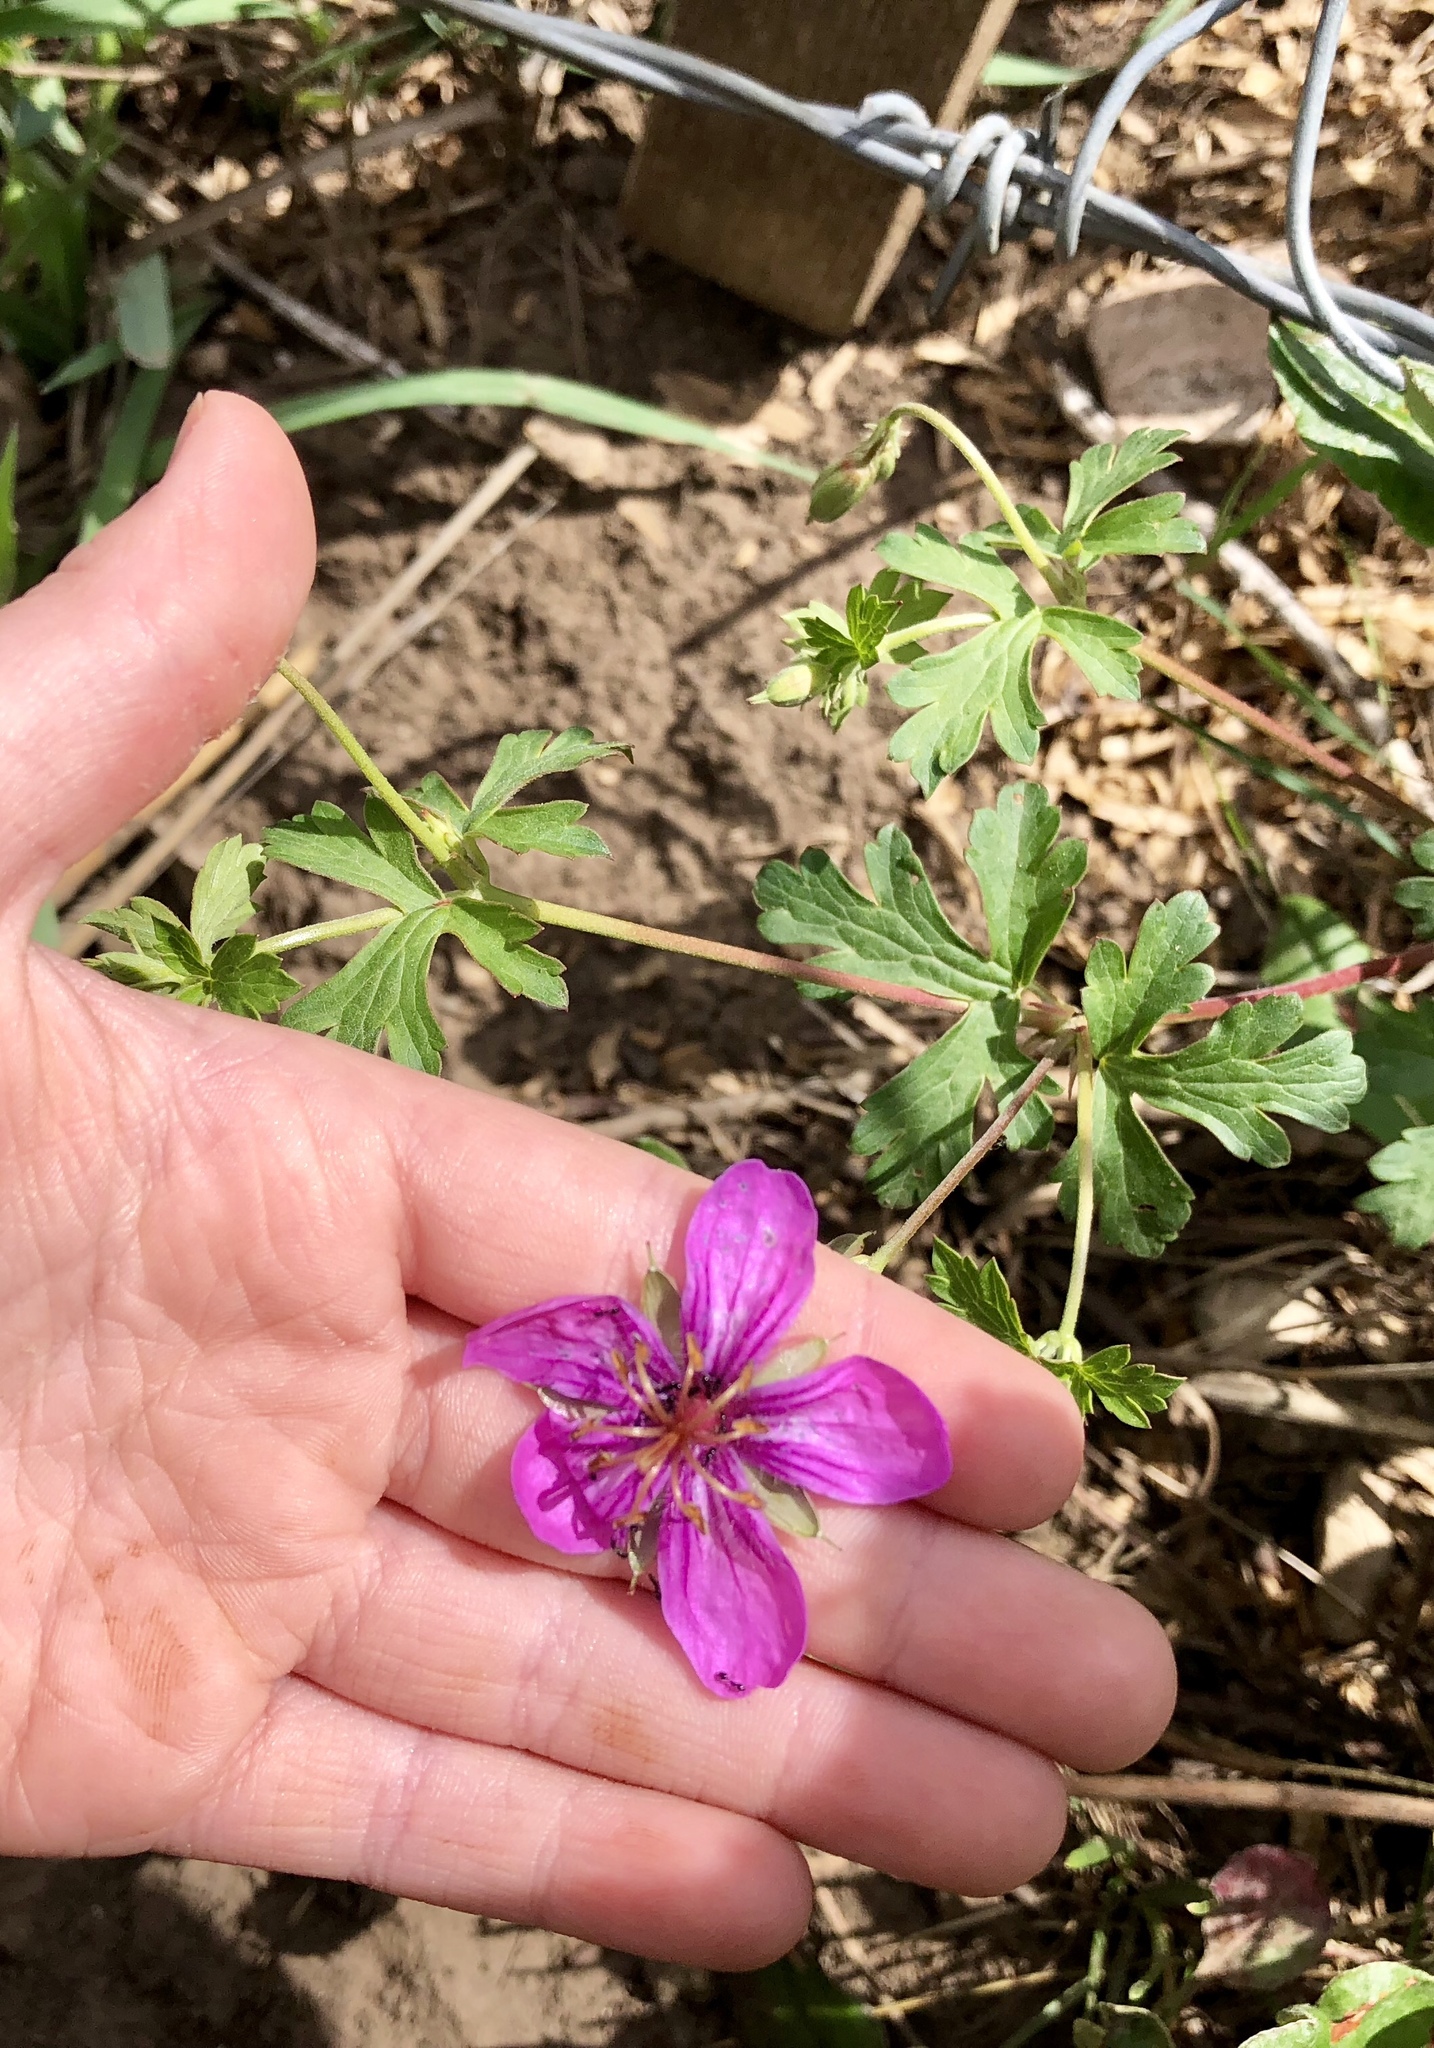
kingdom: Plantae
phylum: Tracheophyta
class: Magnoliopsida
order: Geraniales
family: Geraniaceae
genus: Geranium
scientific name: Geranium caespitosum
